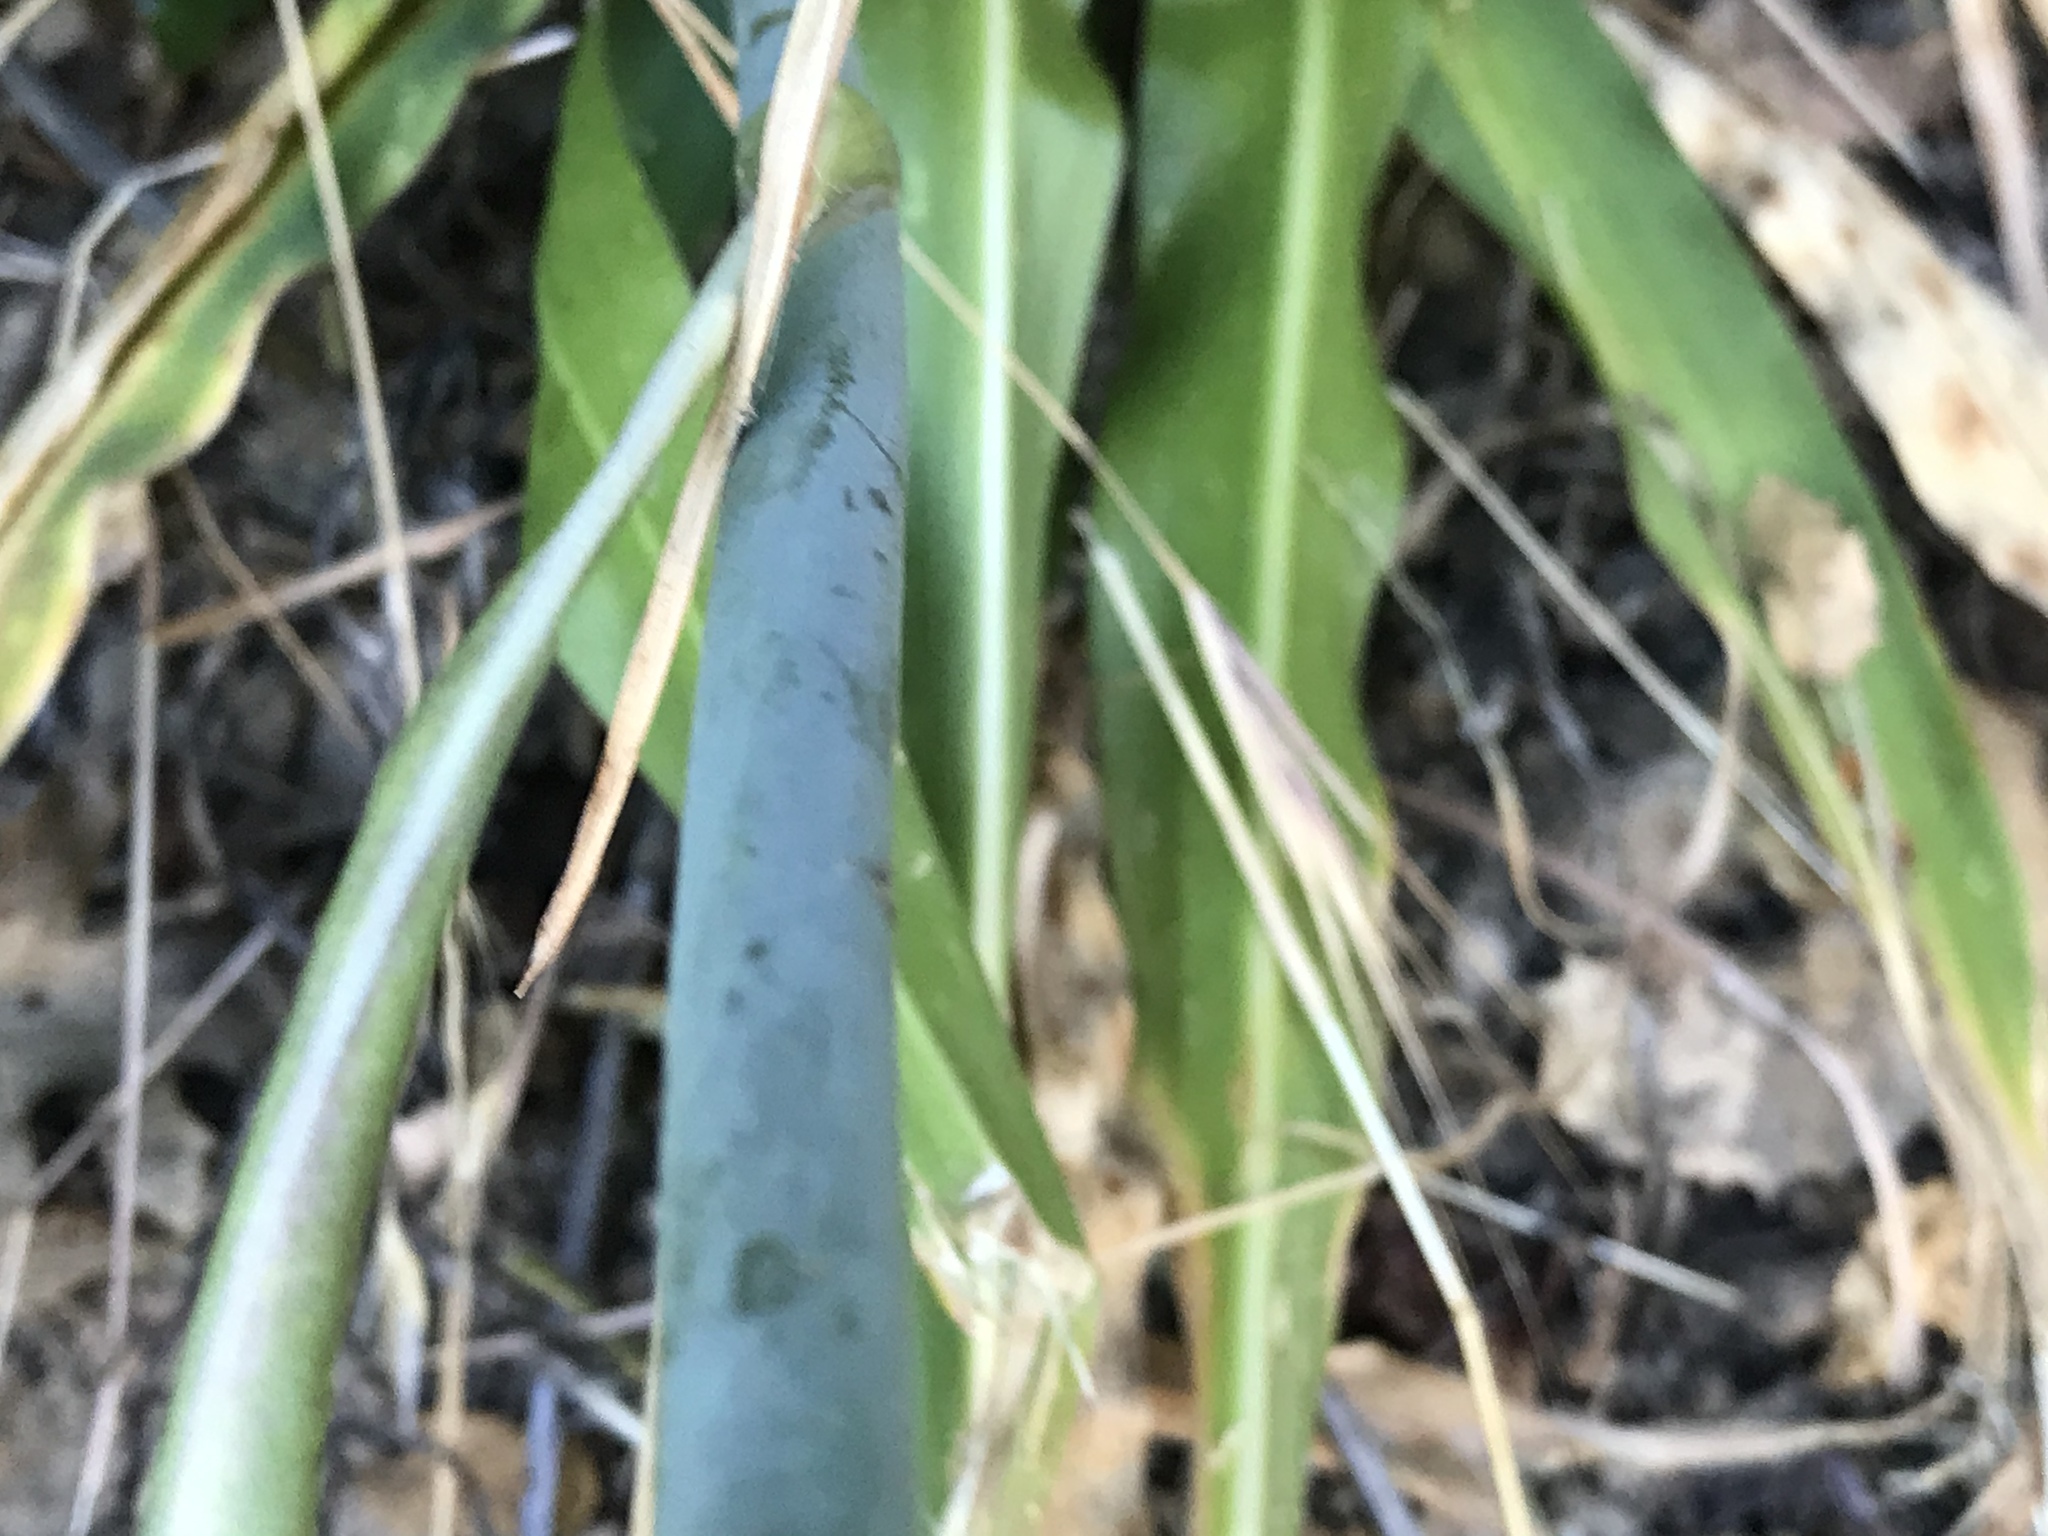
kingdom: Plantae
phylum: Tracheophyta
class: Liliopsida
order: Asparagales
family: Asparagaceae
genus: Chlorogalum
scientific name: Chlorogalum pomeridianum
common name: Amole
